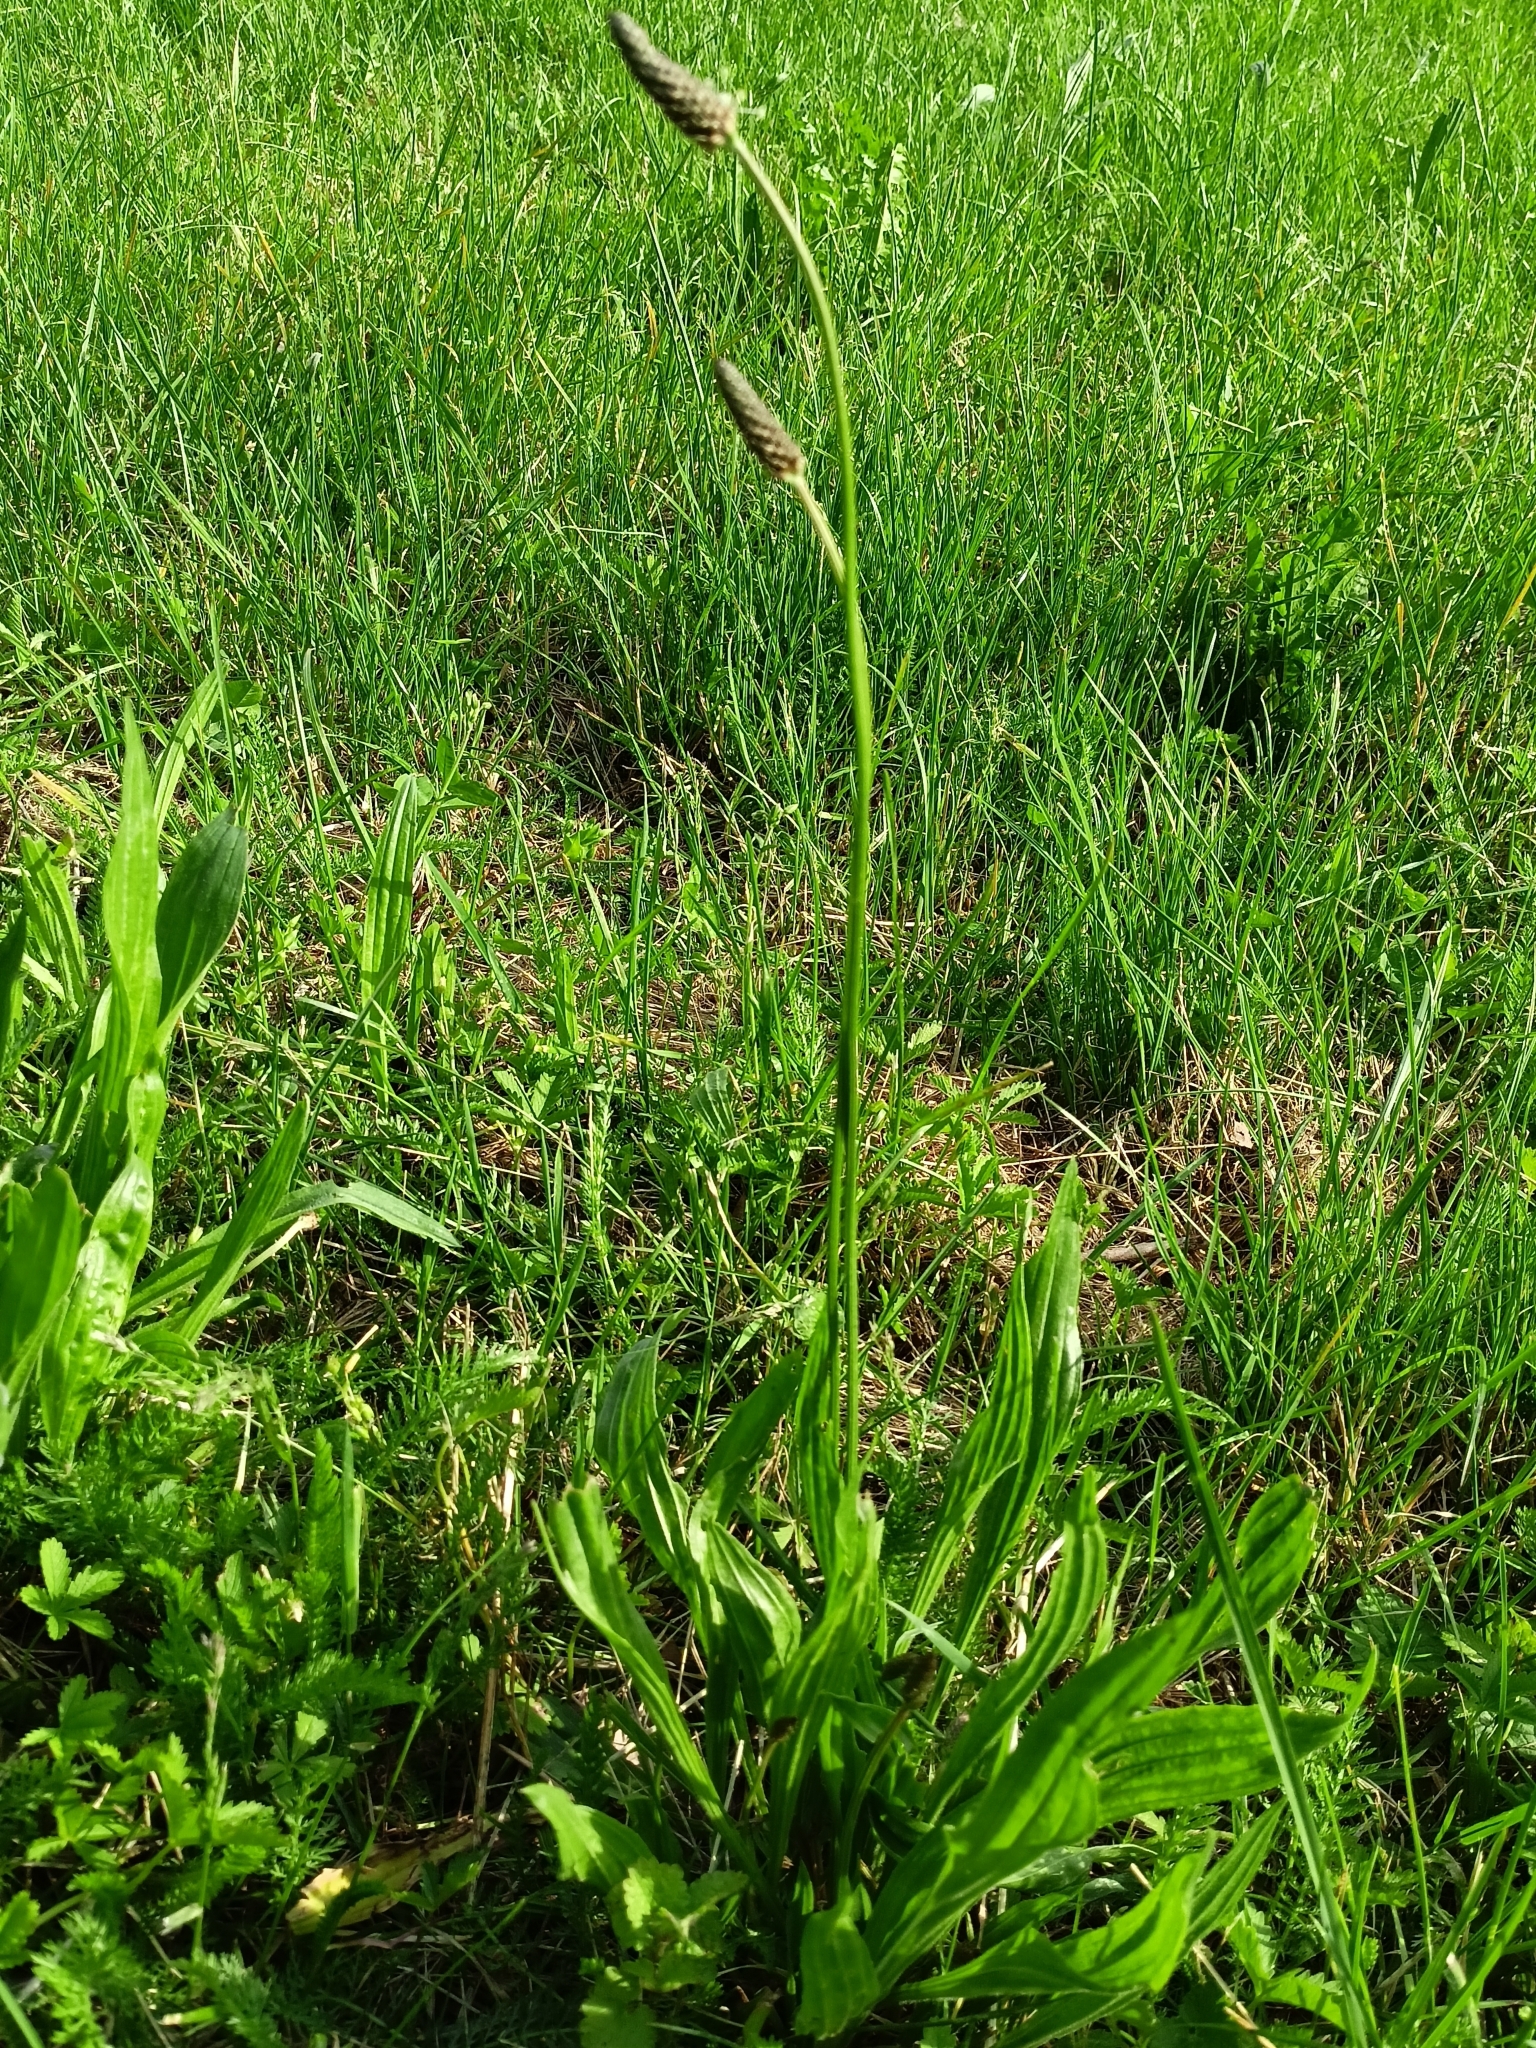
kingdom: Plantae
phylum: Tracheophyta
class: Magnoliopsida
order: Lamiales
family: Plantaginaceae
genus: Plantago
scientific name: Plantago lanceolata
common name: Ribwort plantain
